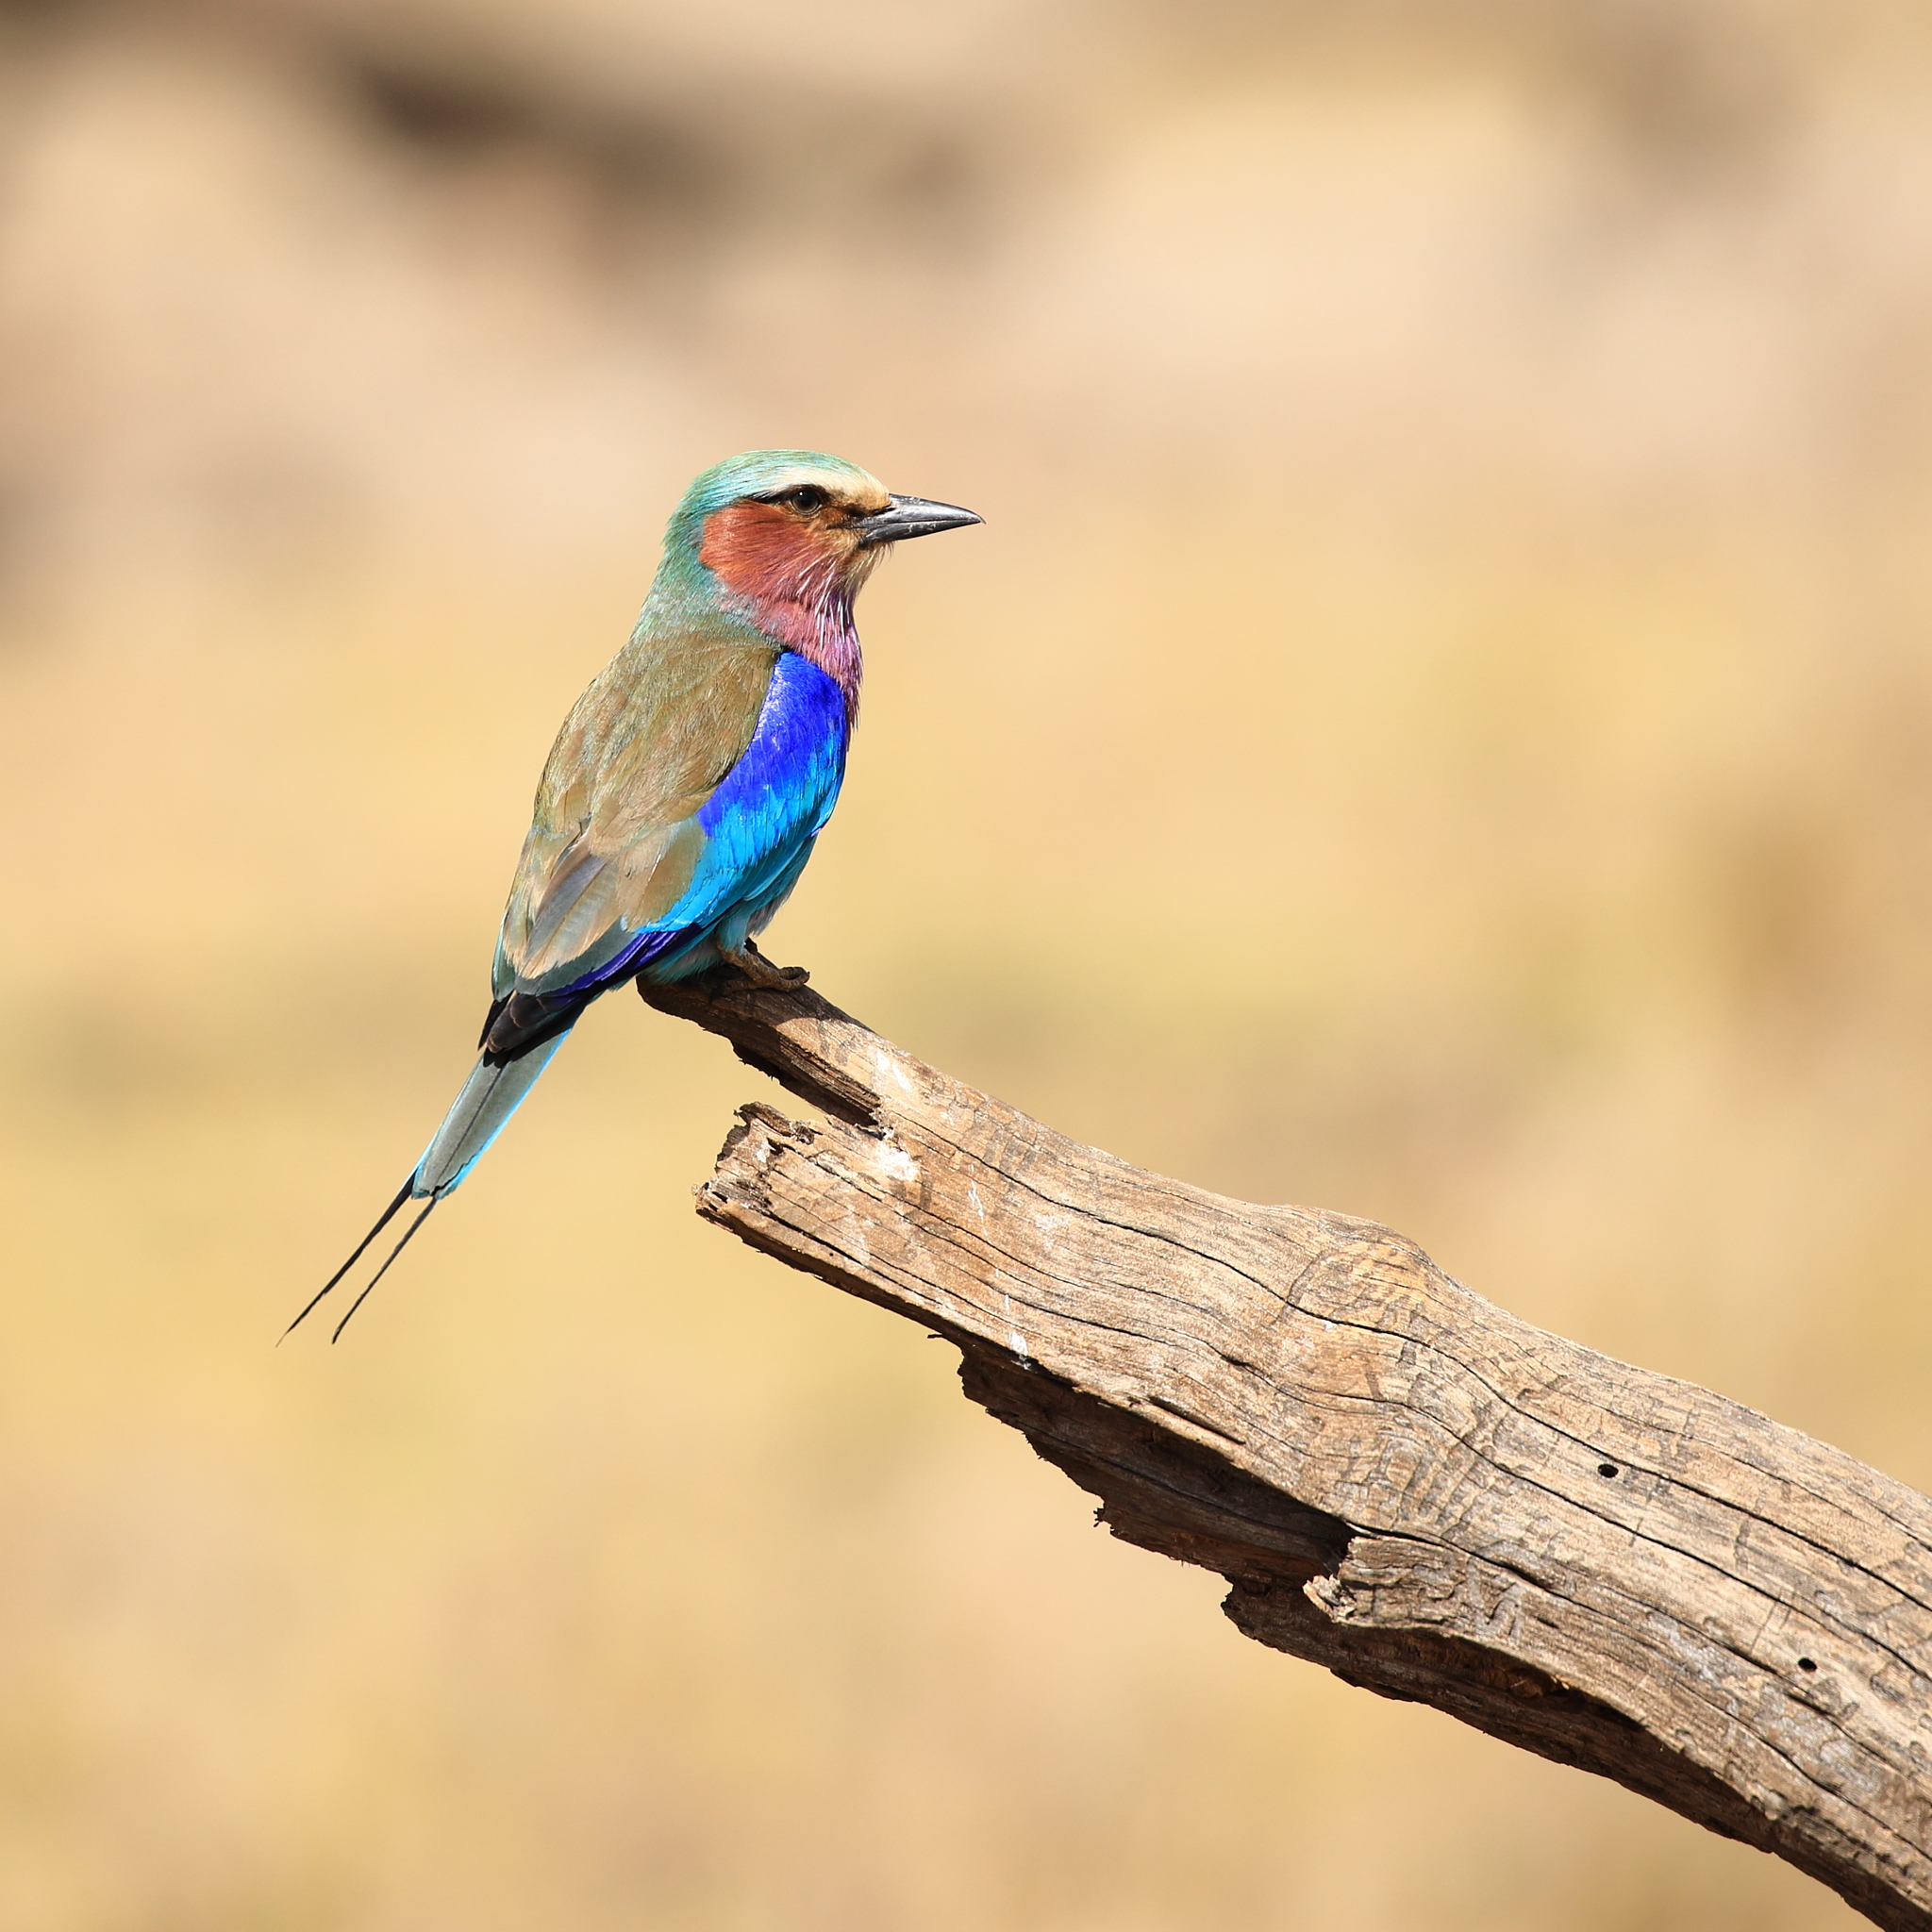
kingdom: Animalia
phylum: Chordata
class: Aves
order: Coraciiformes
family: Coraciidae
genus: Coracias
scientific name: Coracias caudatus
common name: Lilac-breasted roller
